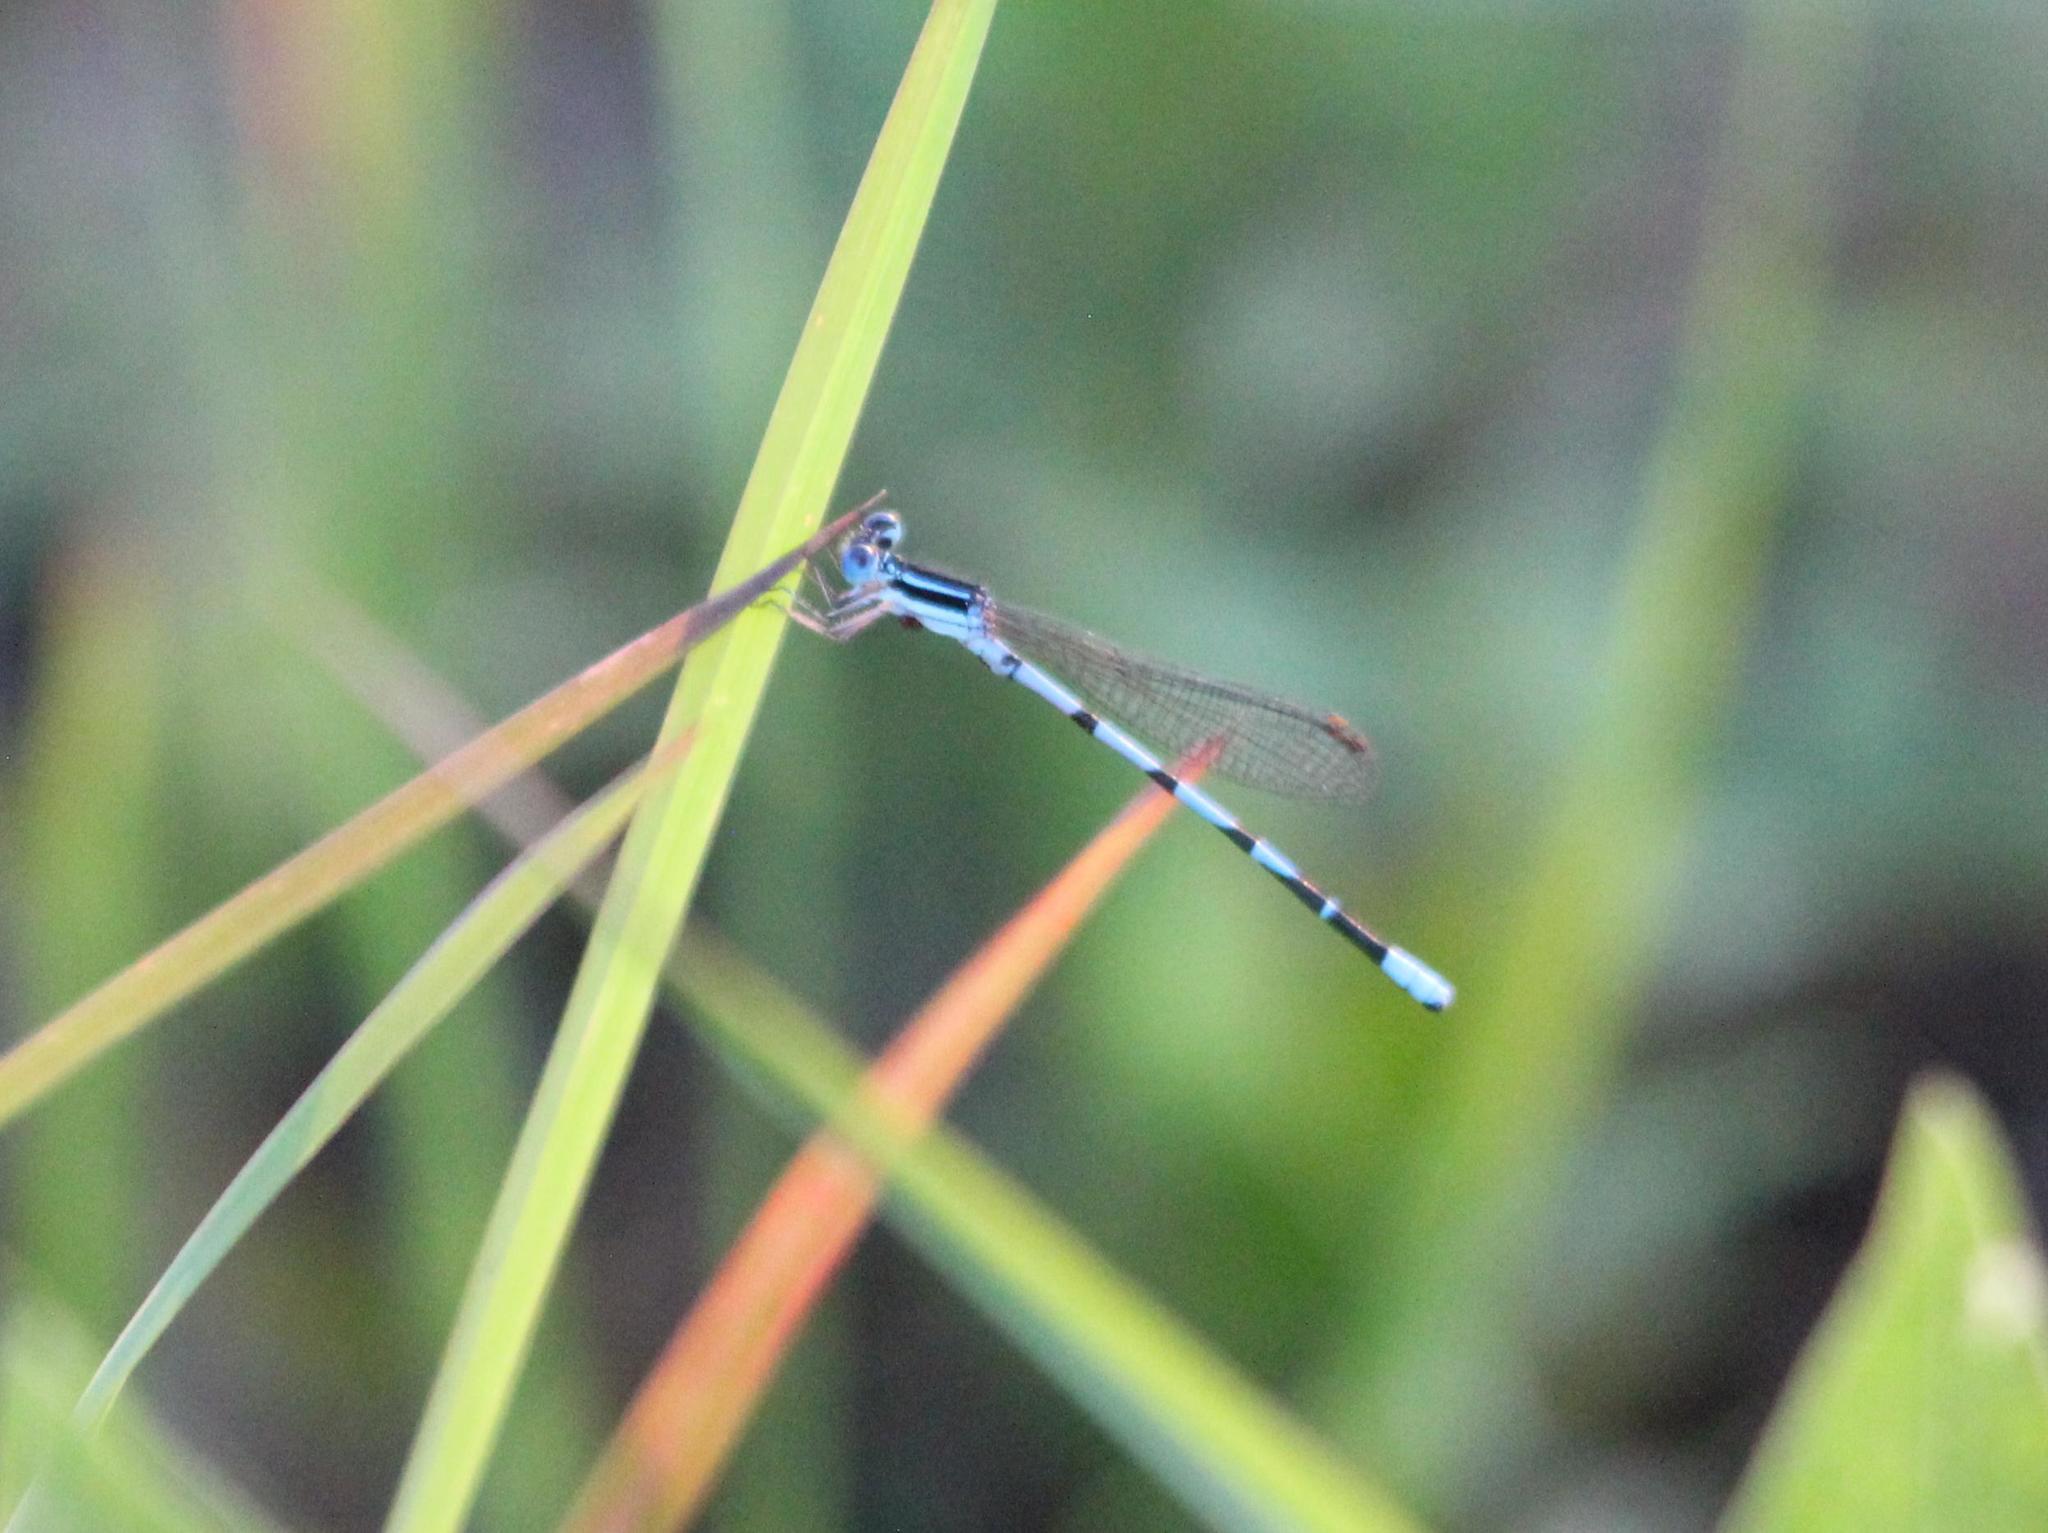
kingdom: Animalia
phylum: Arthropoda
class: Insecta
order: Odonata
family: Coenagrionidae
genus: Argia
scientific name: Argia bipunctulata
